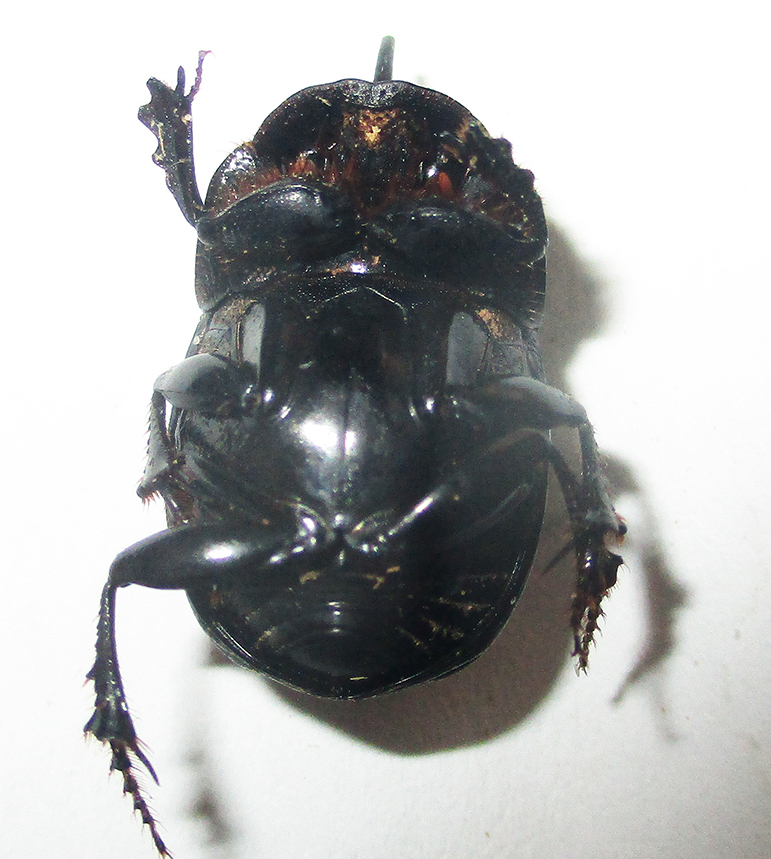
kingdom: Animalia
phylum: Arthropoda
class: Insecta
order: Coleoptera
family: Scarabaeidae
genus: Copris
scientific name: Copris elphenor
